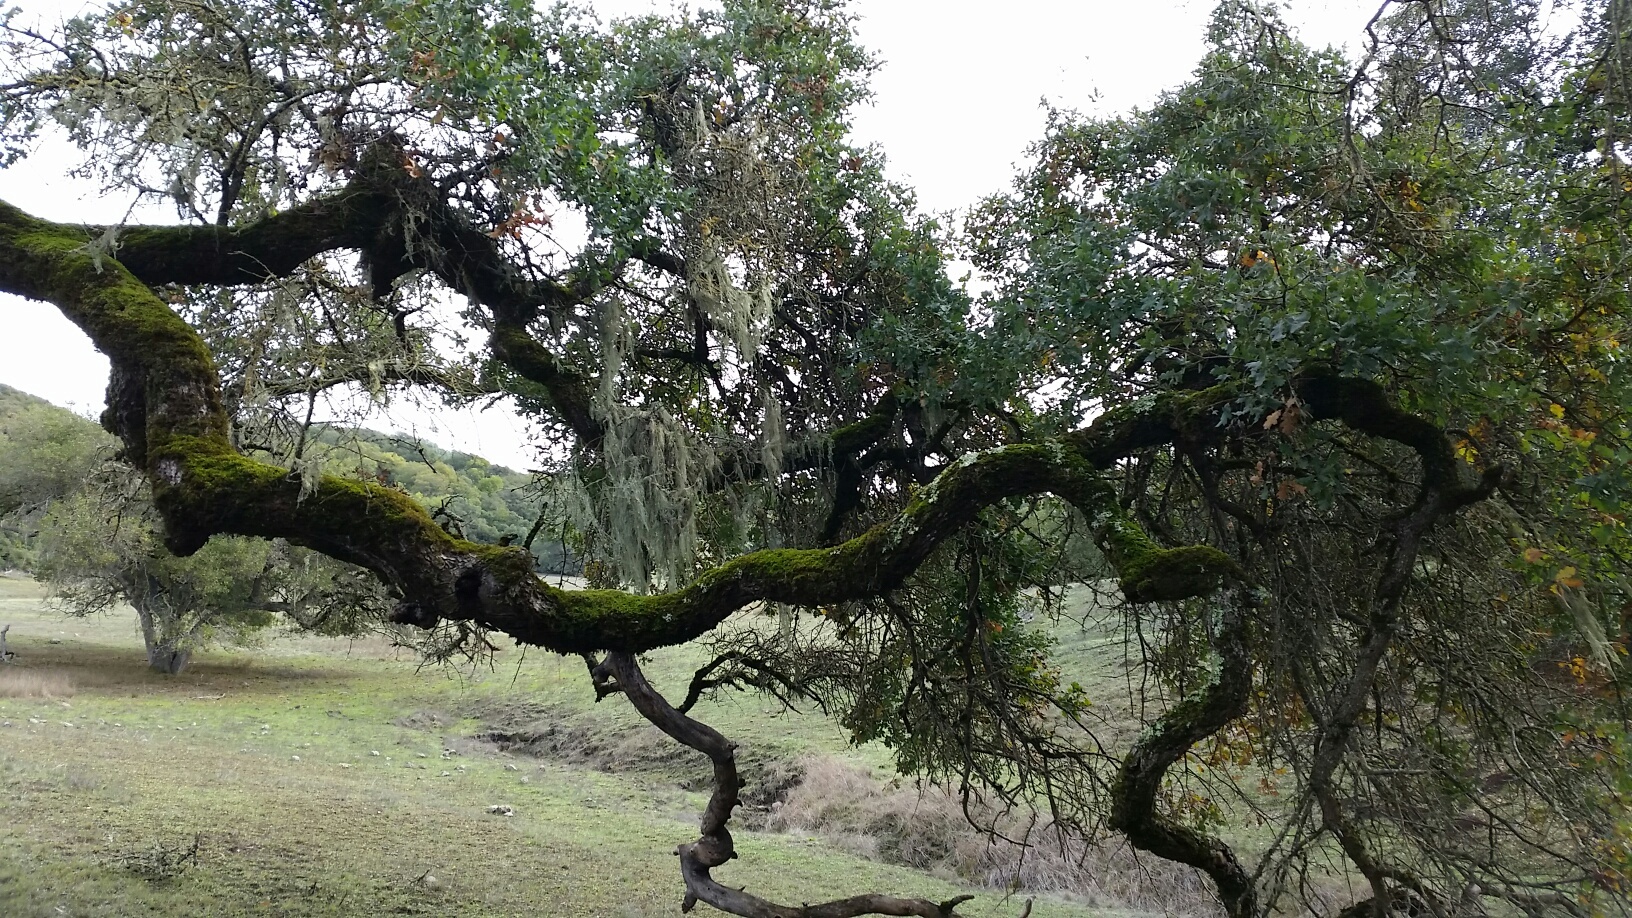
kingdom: Fungi
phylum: Ascomycota
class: Lecanoromycetes
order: Lecanorales
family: Ramalinaceae
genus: Ramalina
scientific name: Ramalina menziesii
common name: Lace lichen
